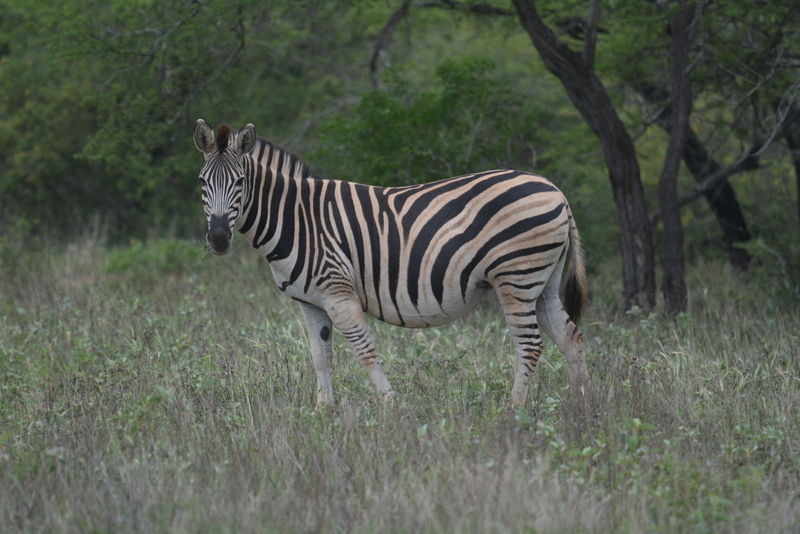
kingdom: Animalia
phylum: Chordata
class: Mammalia
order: Perissodactyla
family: Equidae
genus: Equus
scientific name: Equus quagga
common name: Plains zebra
